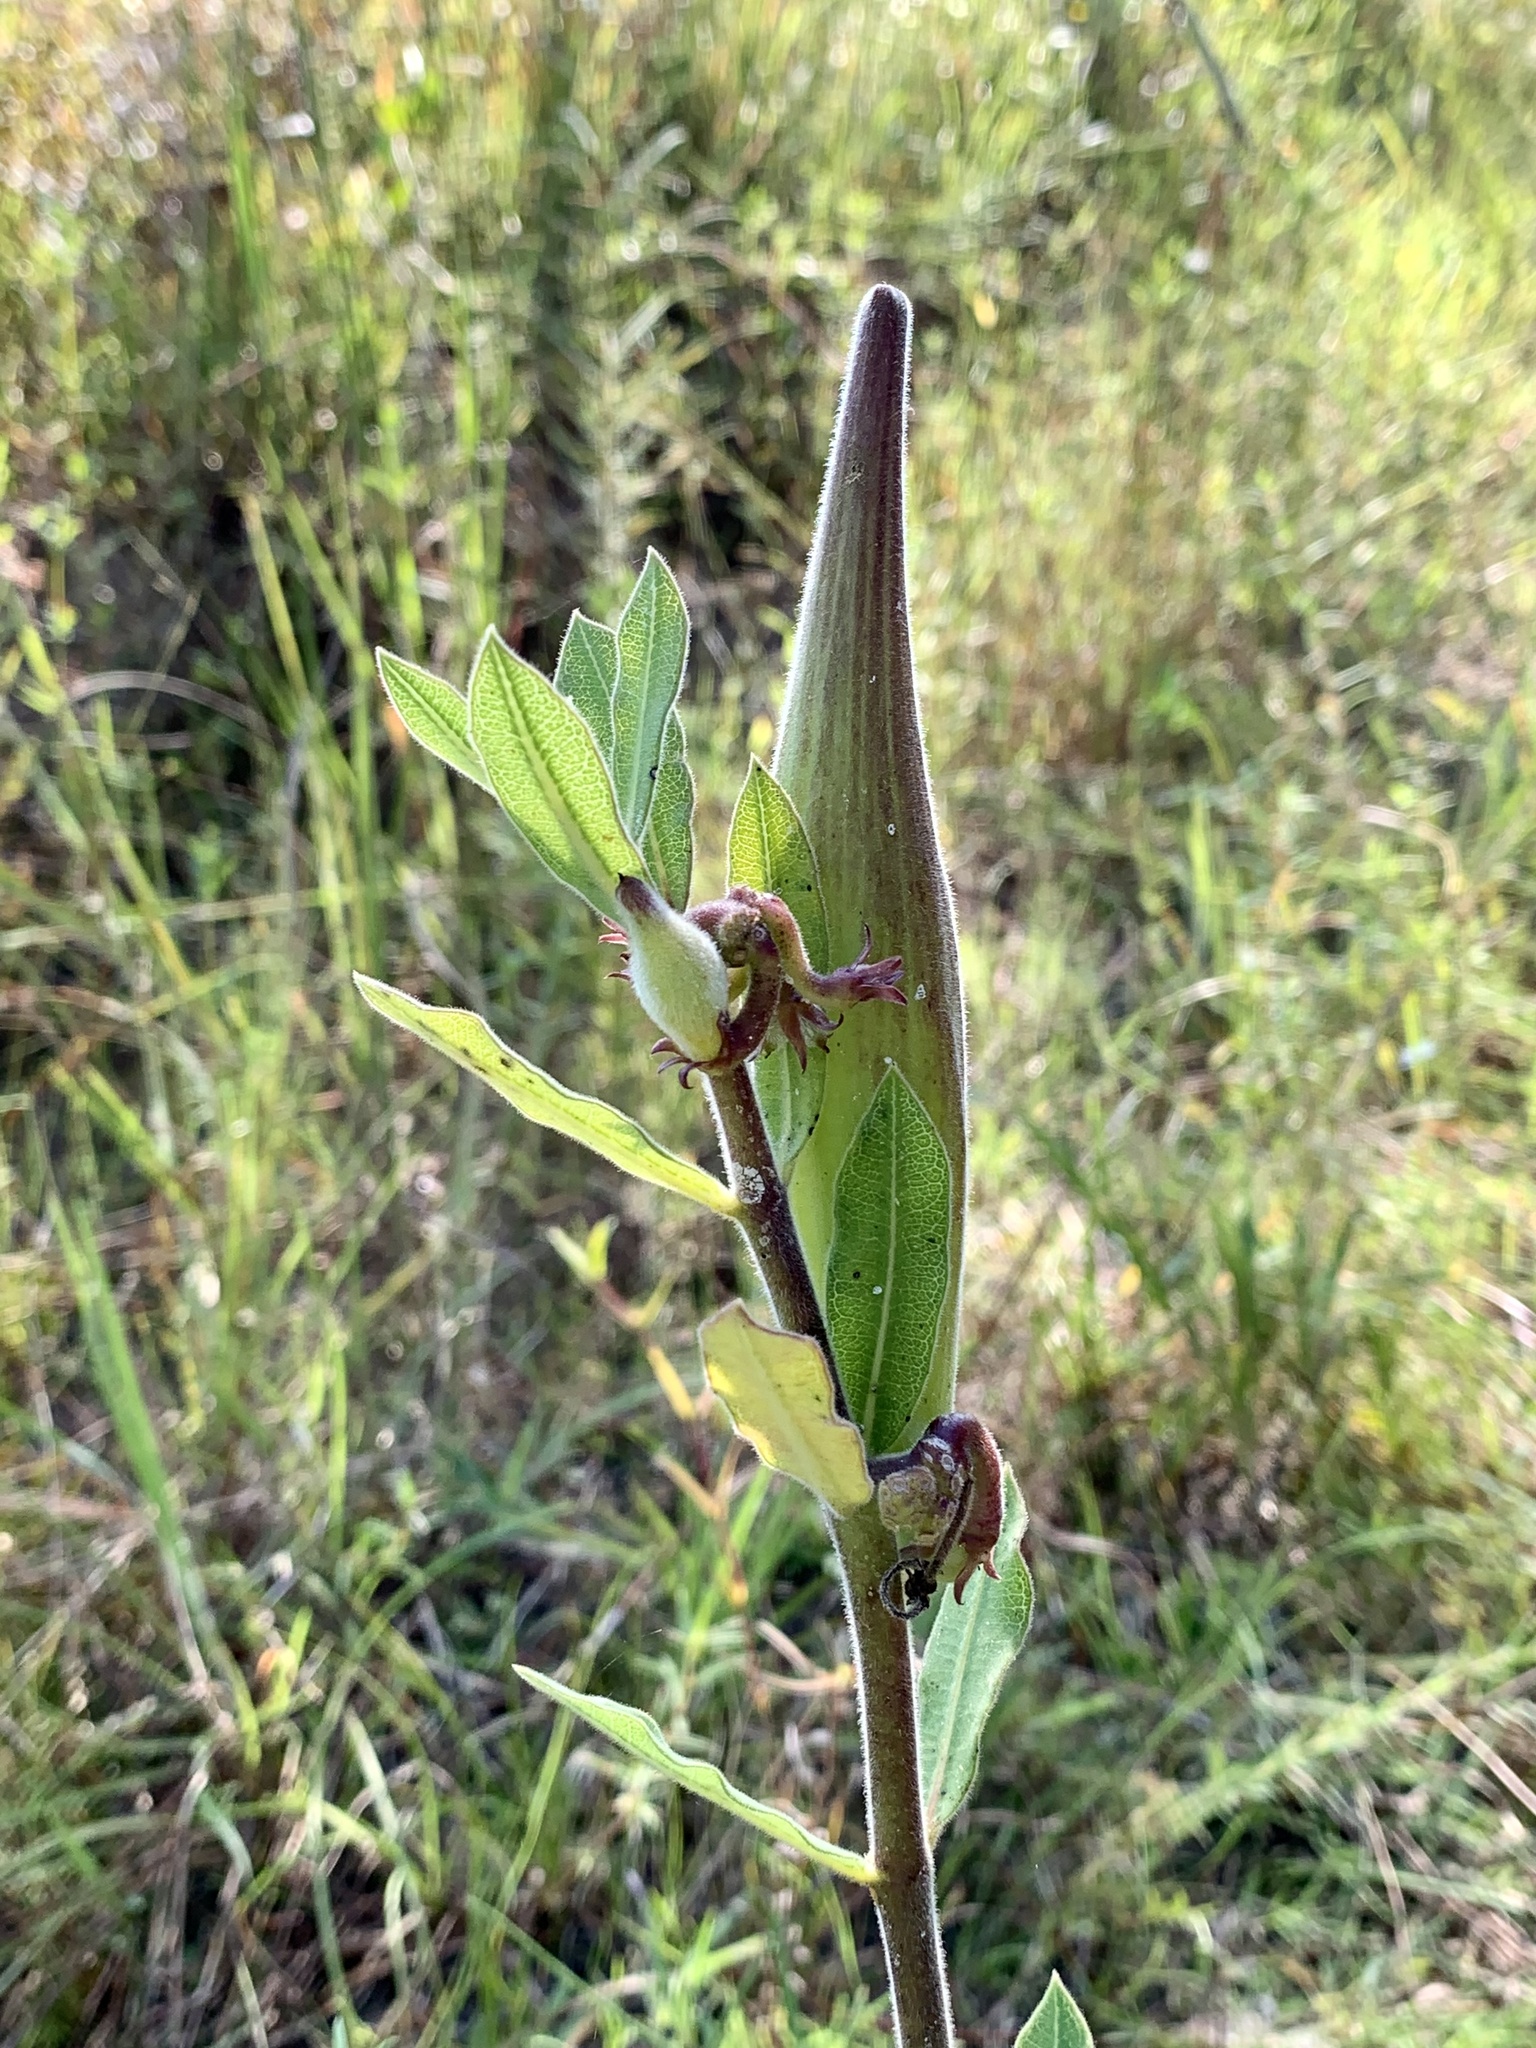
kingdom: Plantae
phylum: Tracheophyta
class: Magnoliopsida
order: Gentianales
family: Apocynaceae
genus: Asclepias
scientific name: Asclepias obovata
